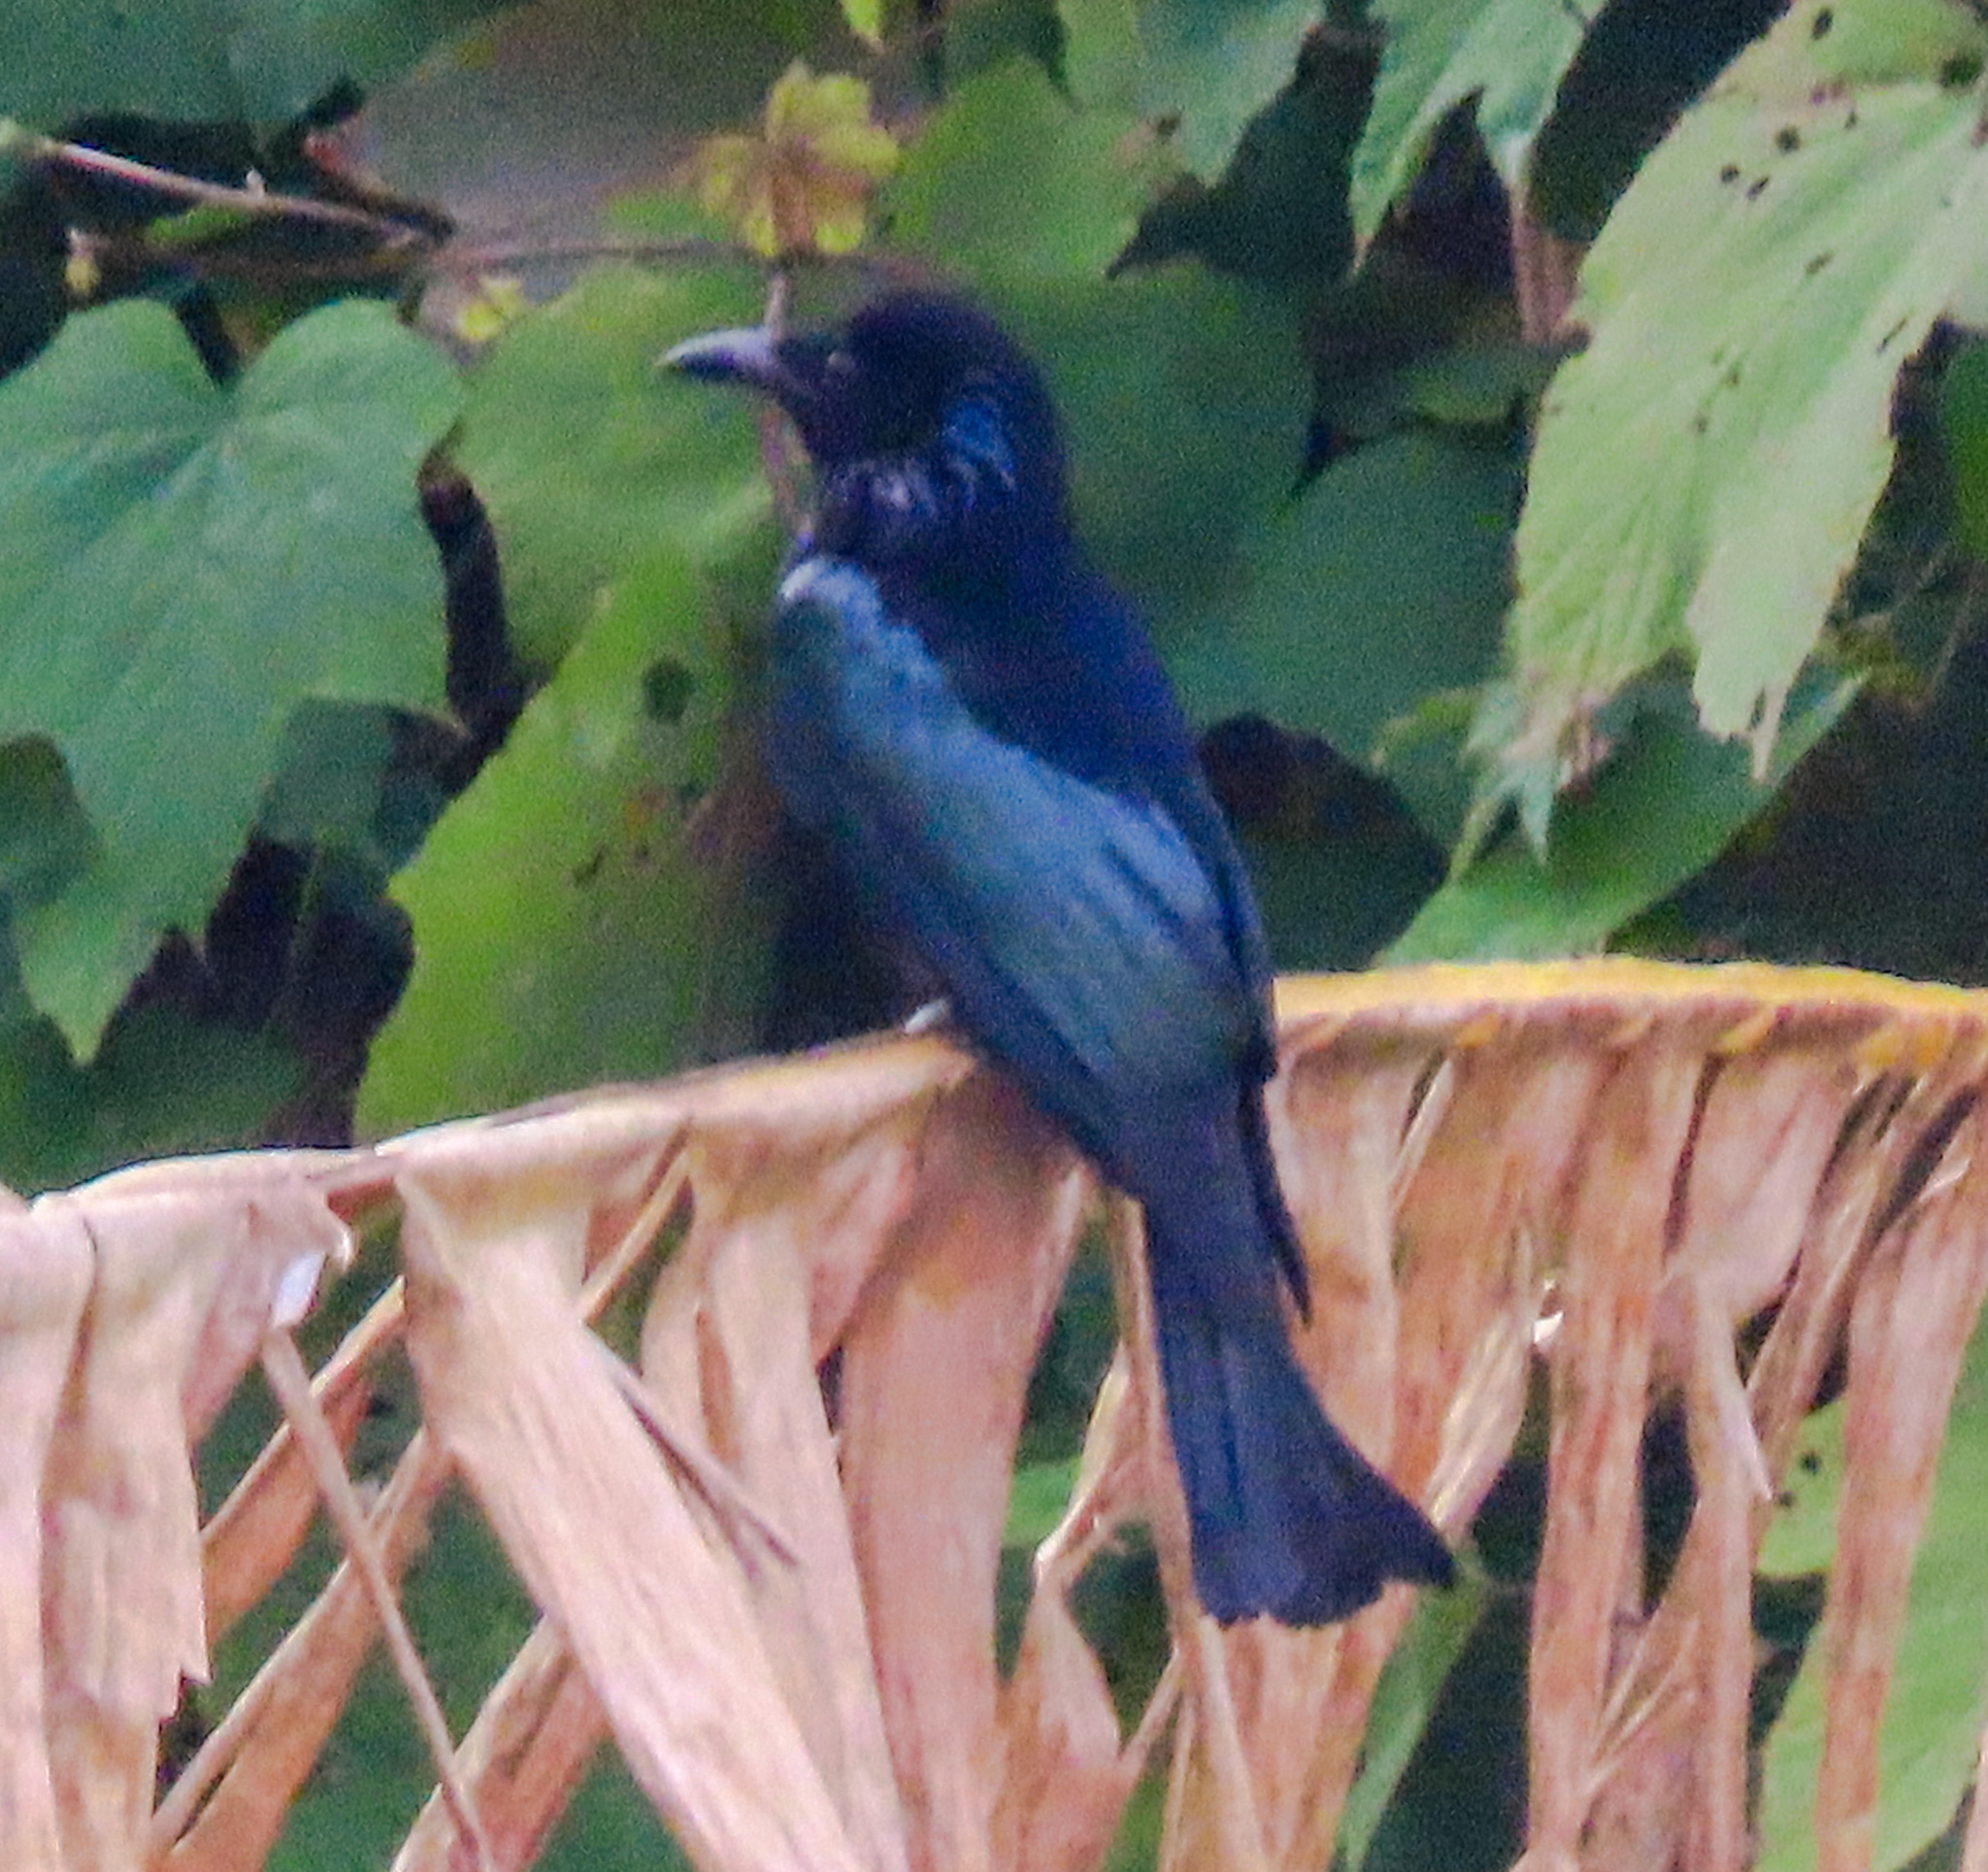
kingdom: Animalia
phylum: Chordata
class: Aves
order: Passeriformes
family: Dicruridae
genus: Dicrurus
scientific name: Dicrurus hottentottus
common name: Hair-crested drongo
